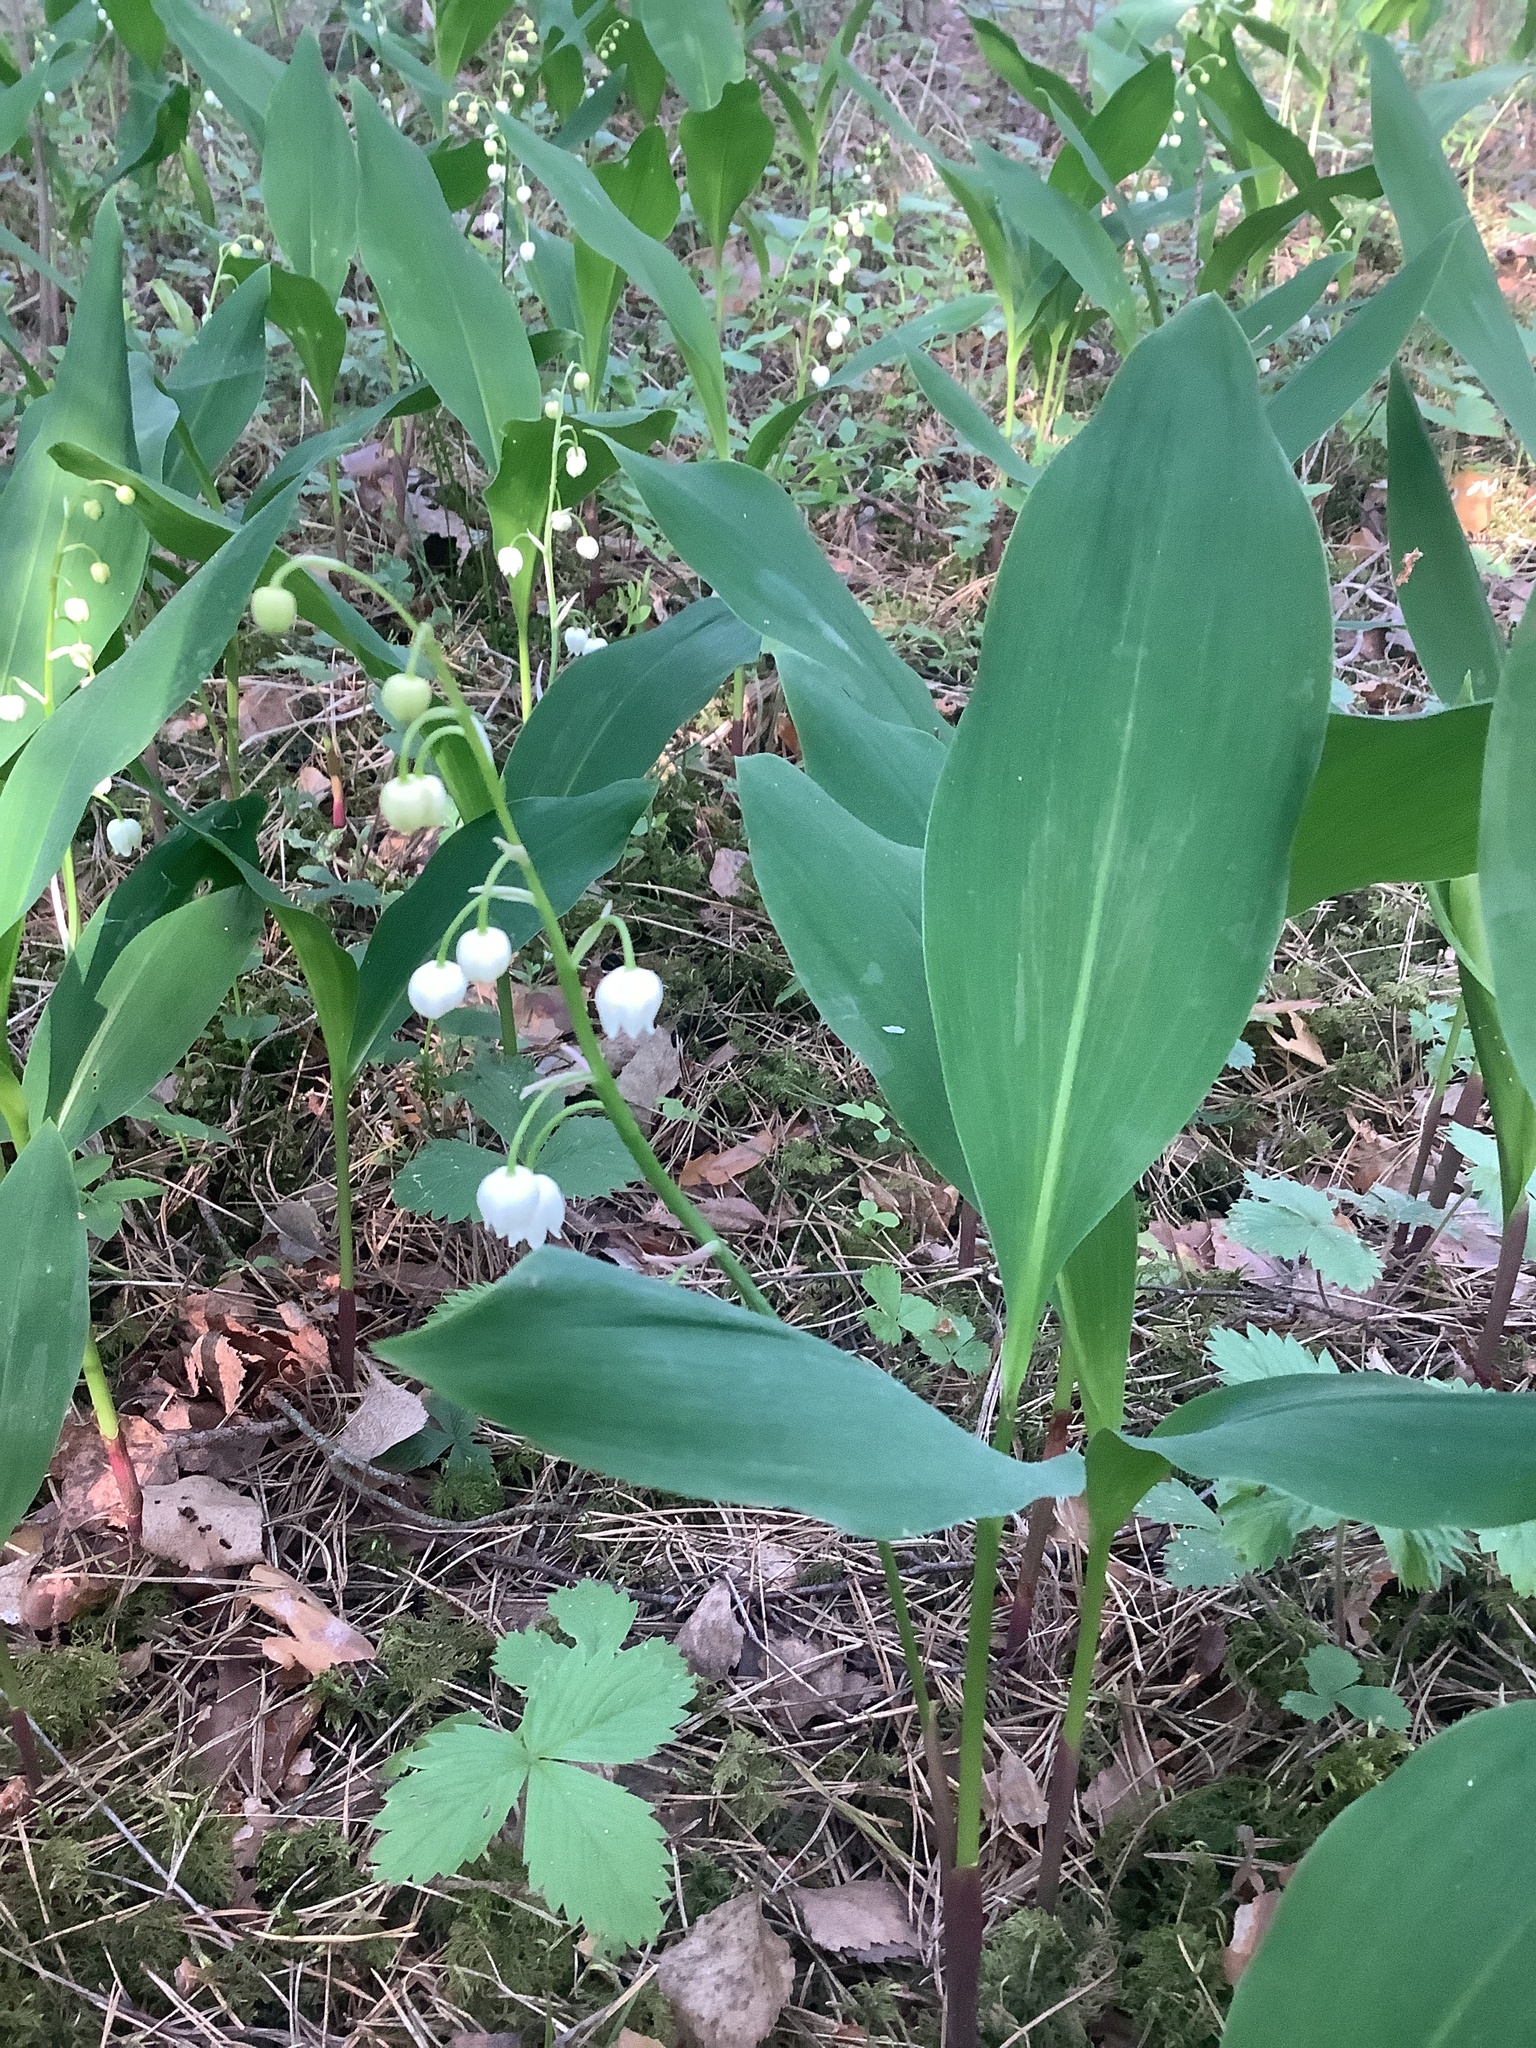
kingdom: Plantae
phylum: Tracheophyta
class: Liliopsida
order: Asparagales
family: Asparagaceae
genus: Convallaria
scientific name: Convallaria majalis
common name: Lily-of-the-valley
